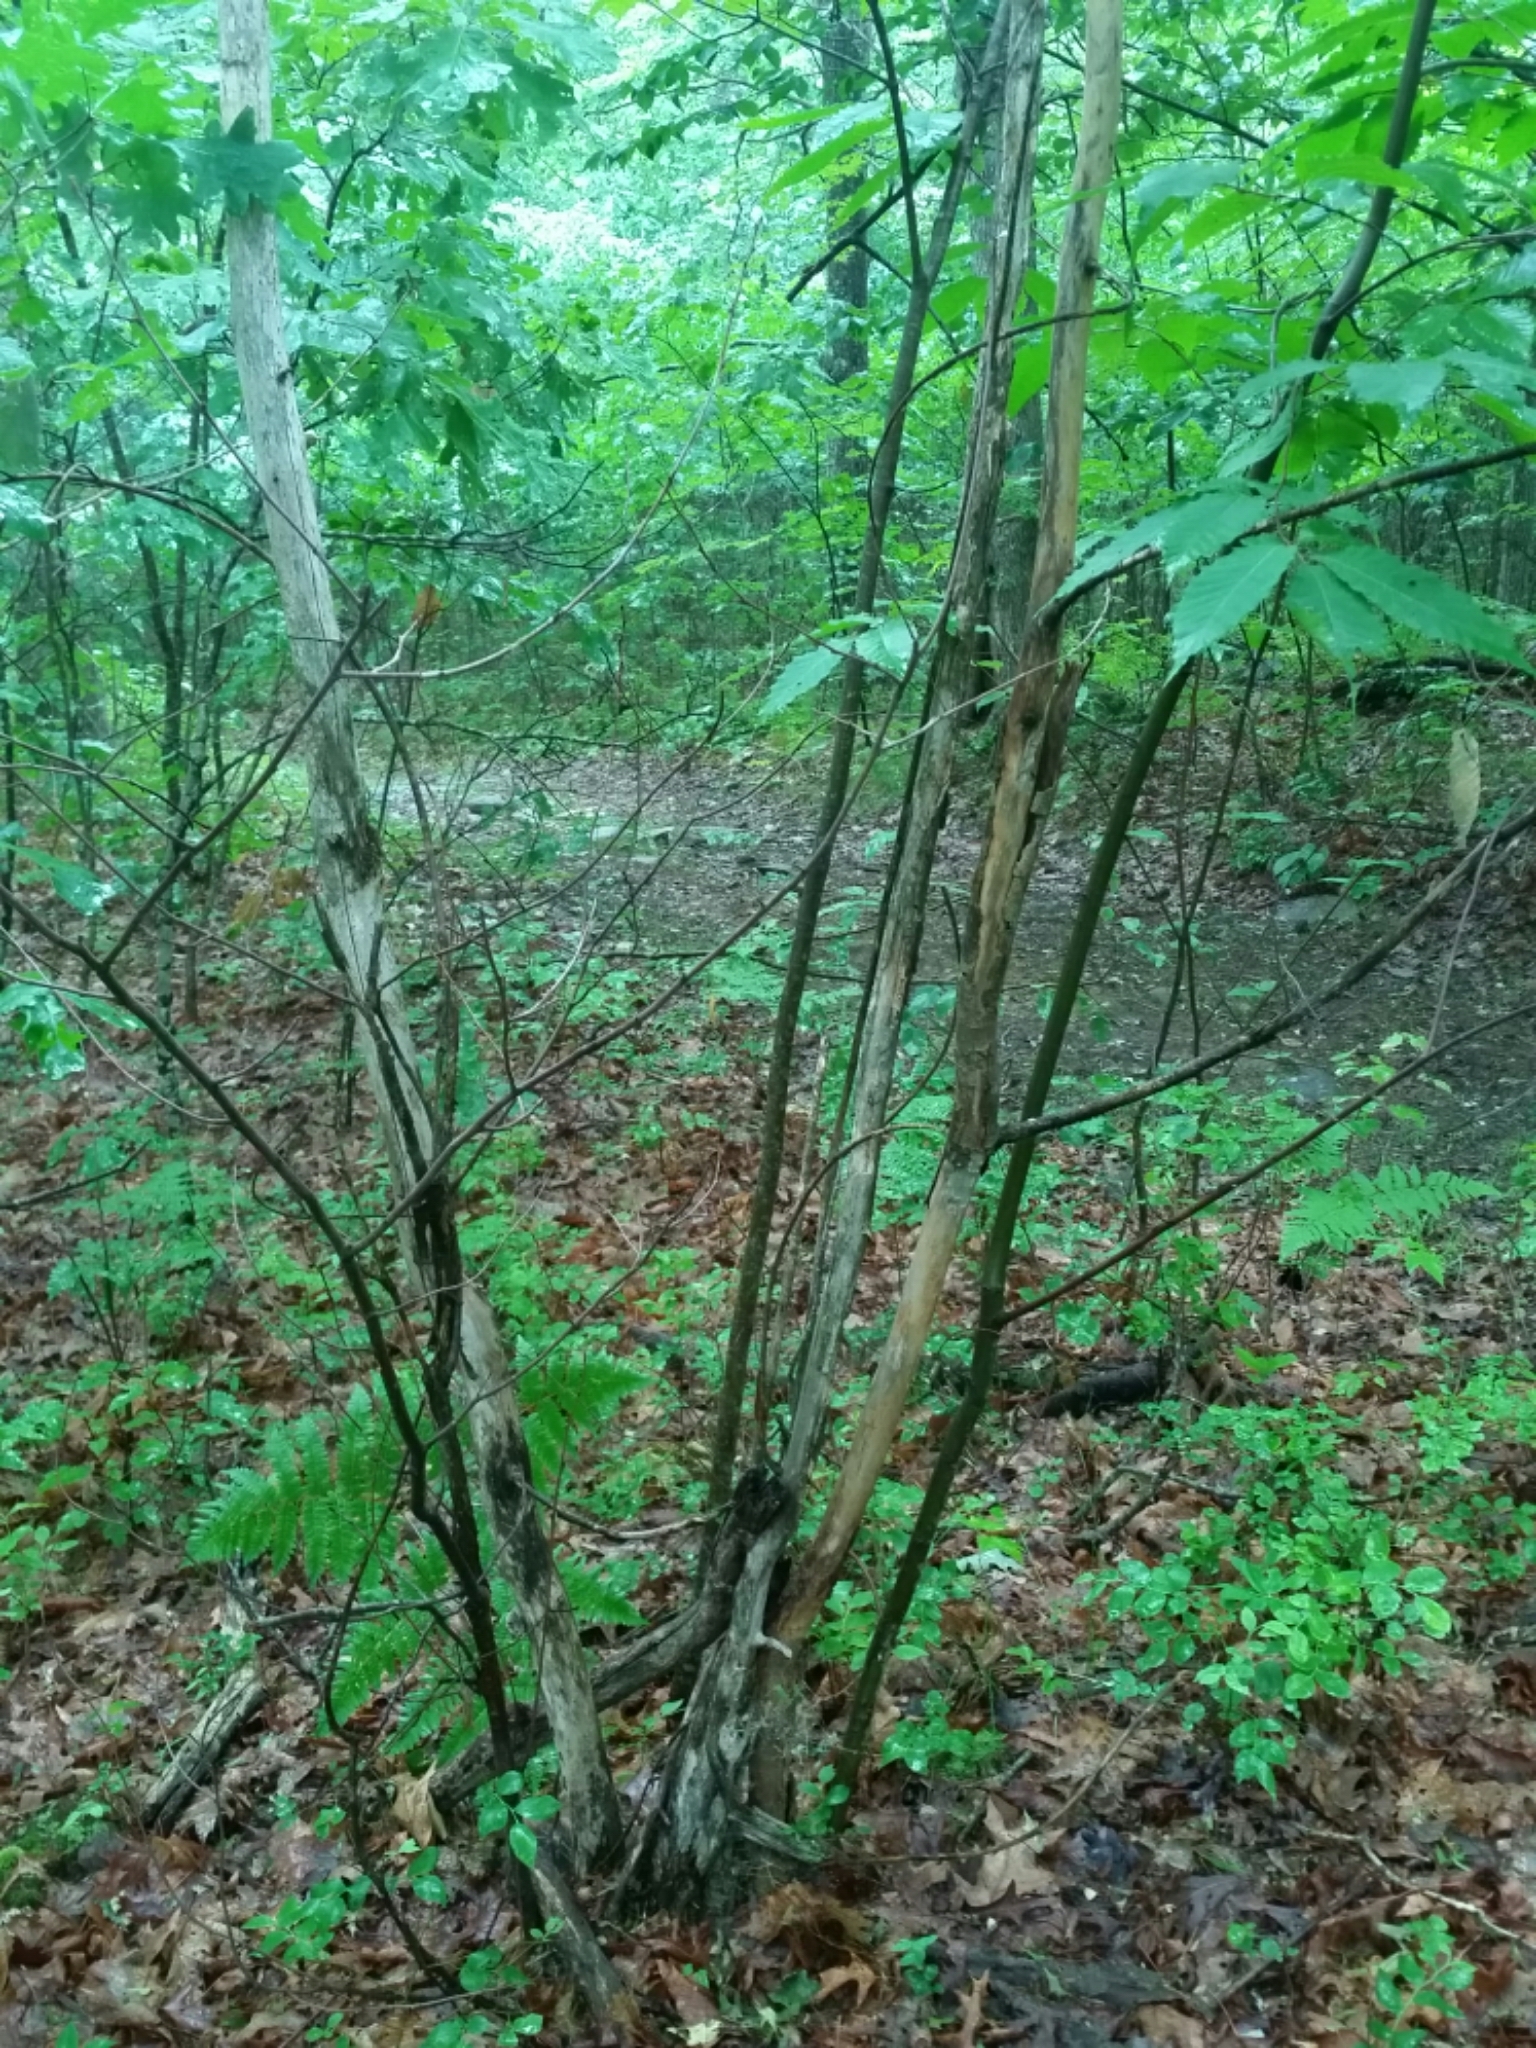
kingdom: Plantae
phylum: Tracheophyta
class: Magnoliopsida
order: Fagales
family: Fagaceae
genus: Castanea
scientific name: Castanea dentata
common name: American chestnut
